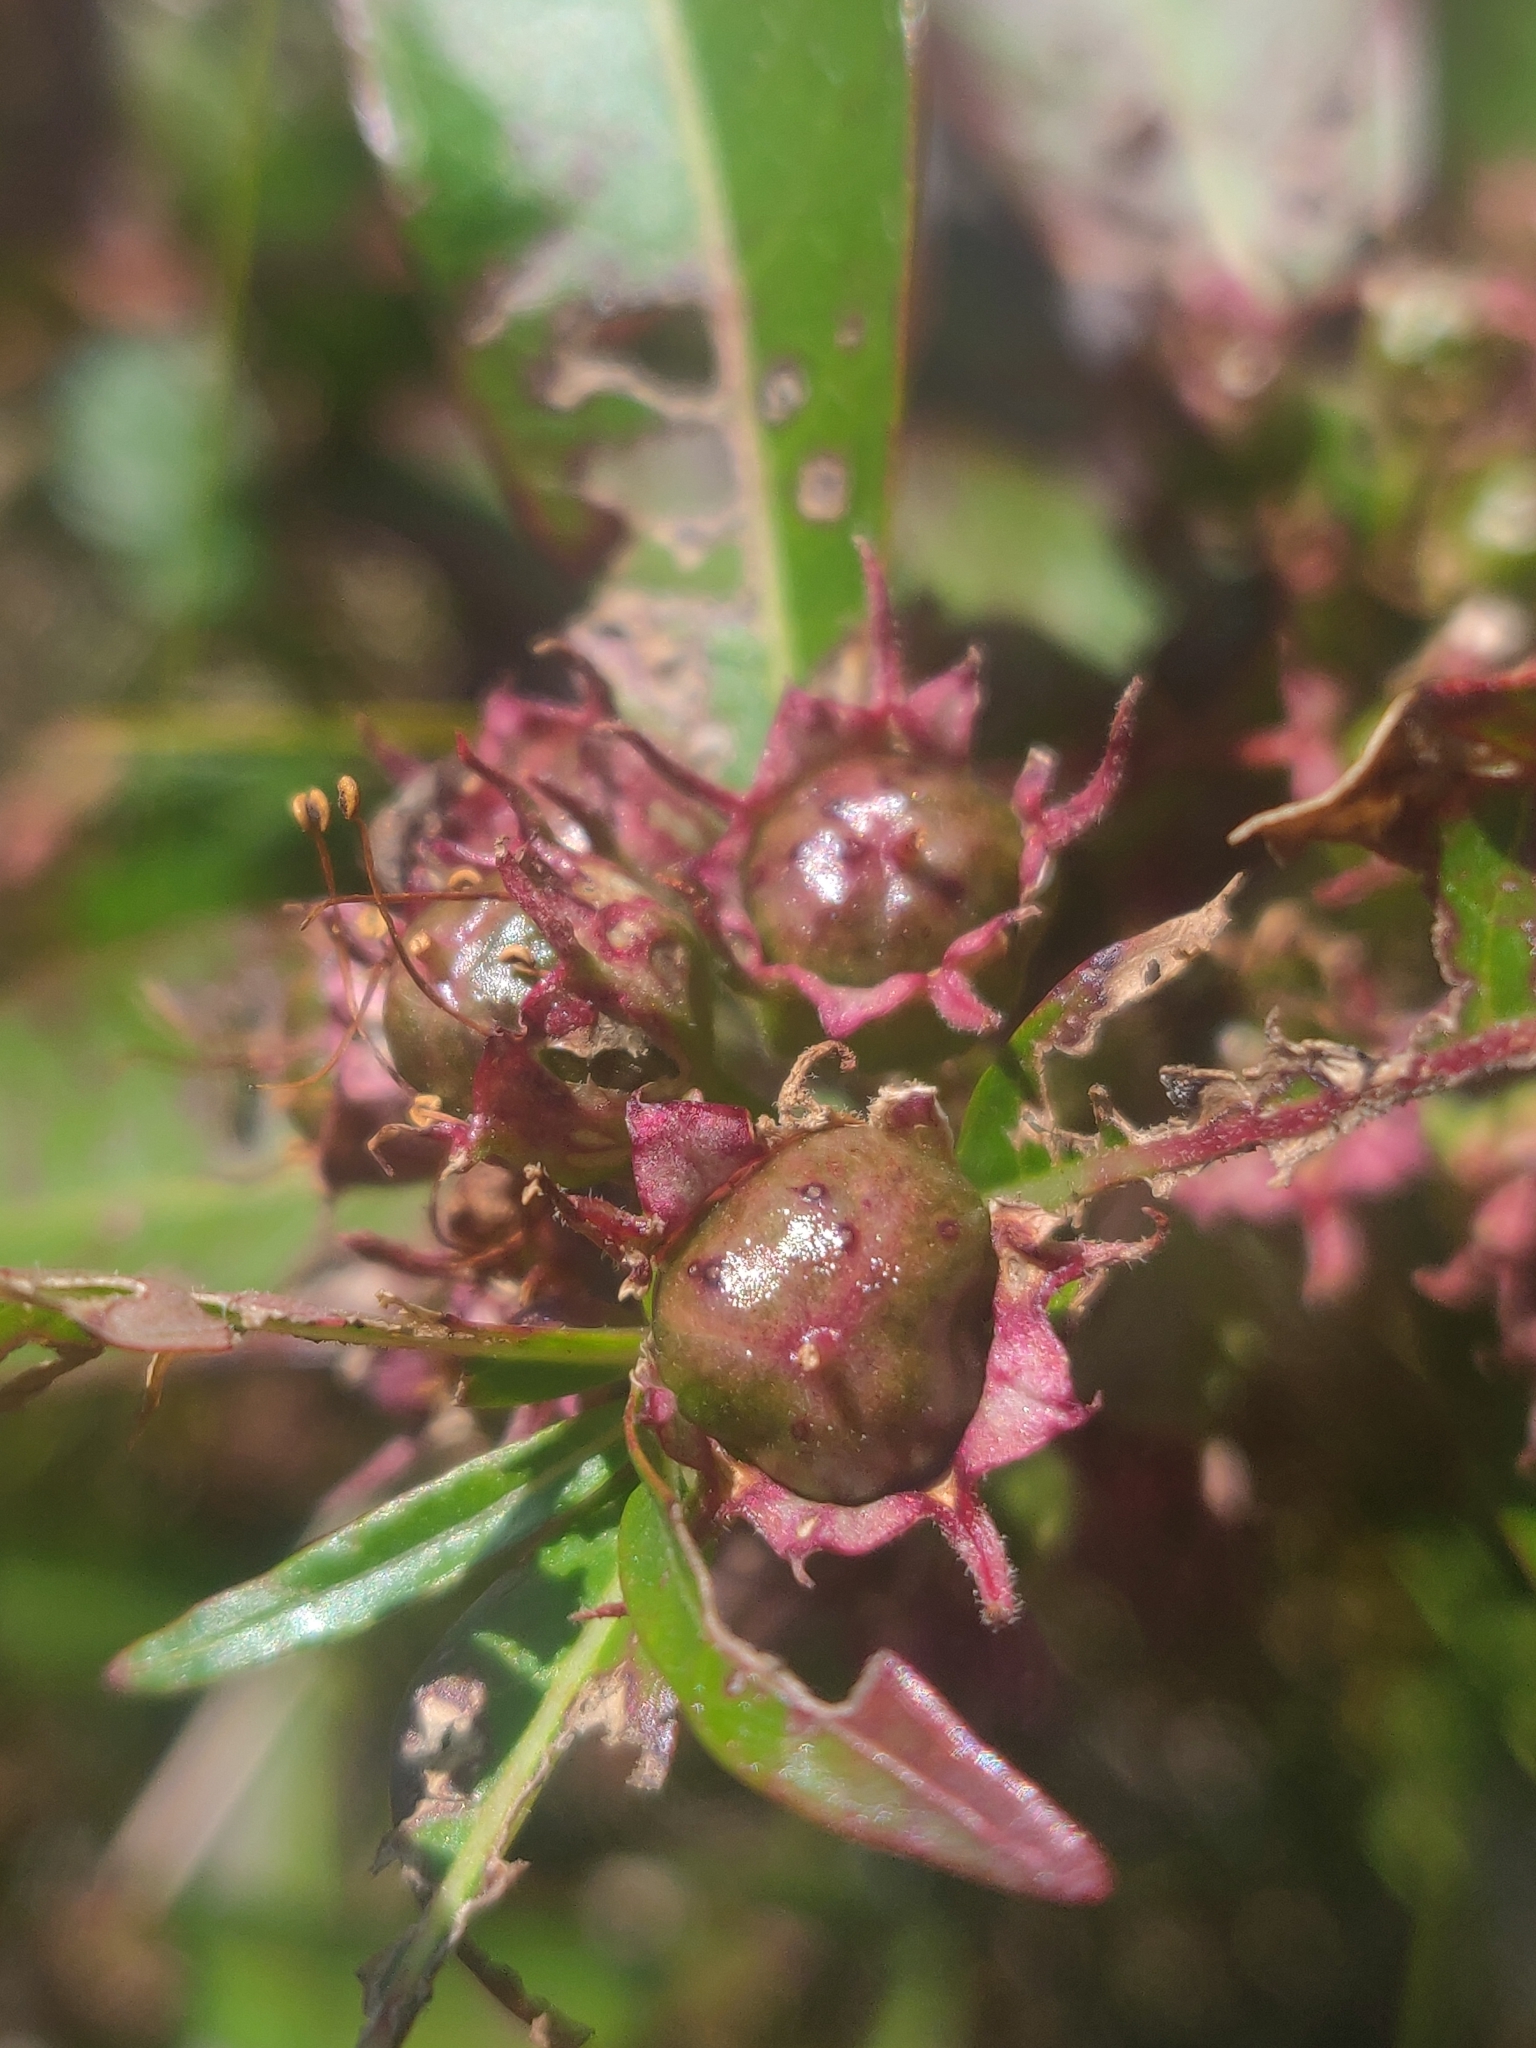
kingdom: Plantae
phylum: Tracheophyta
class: Magnoliopsida
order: Myrtales
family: Lythraceae
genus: Decodon
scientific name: Decodon verticillatus
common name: Hairy swamp loosestrife
